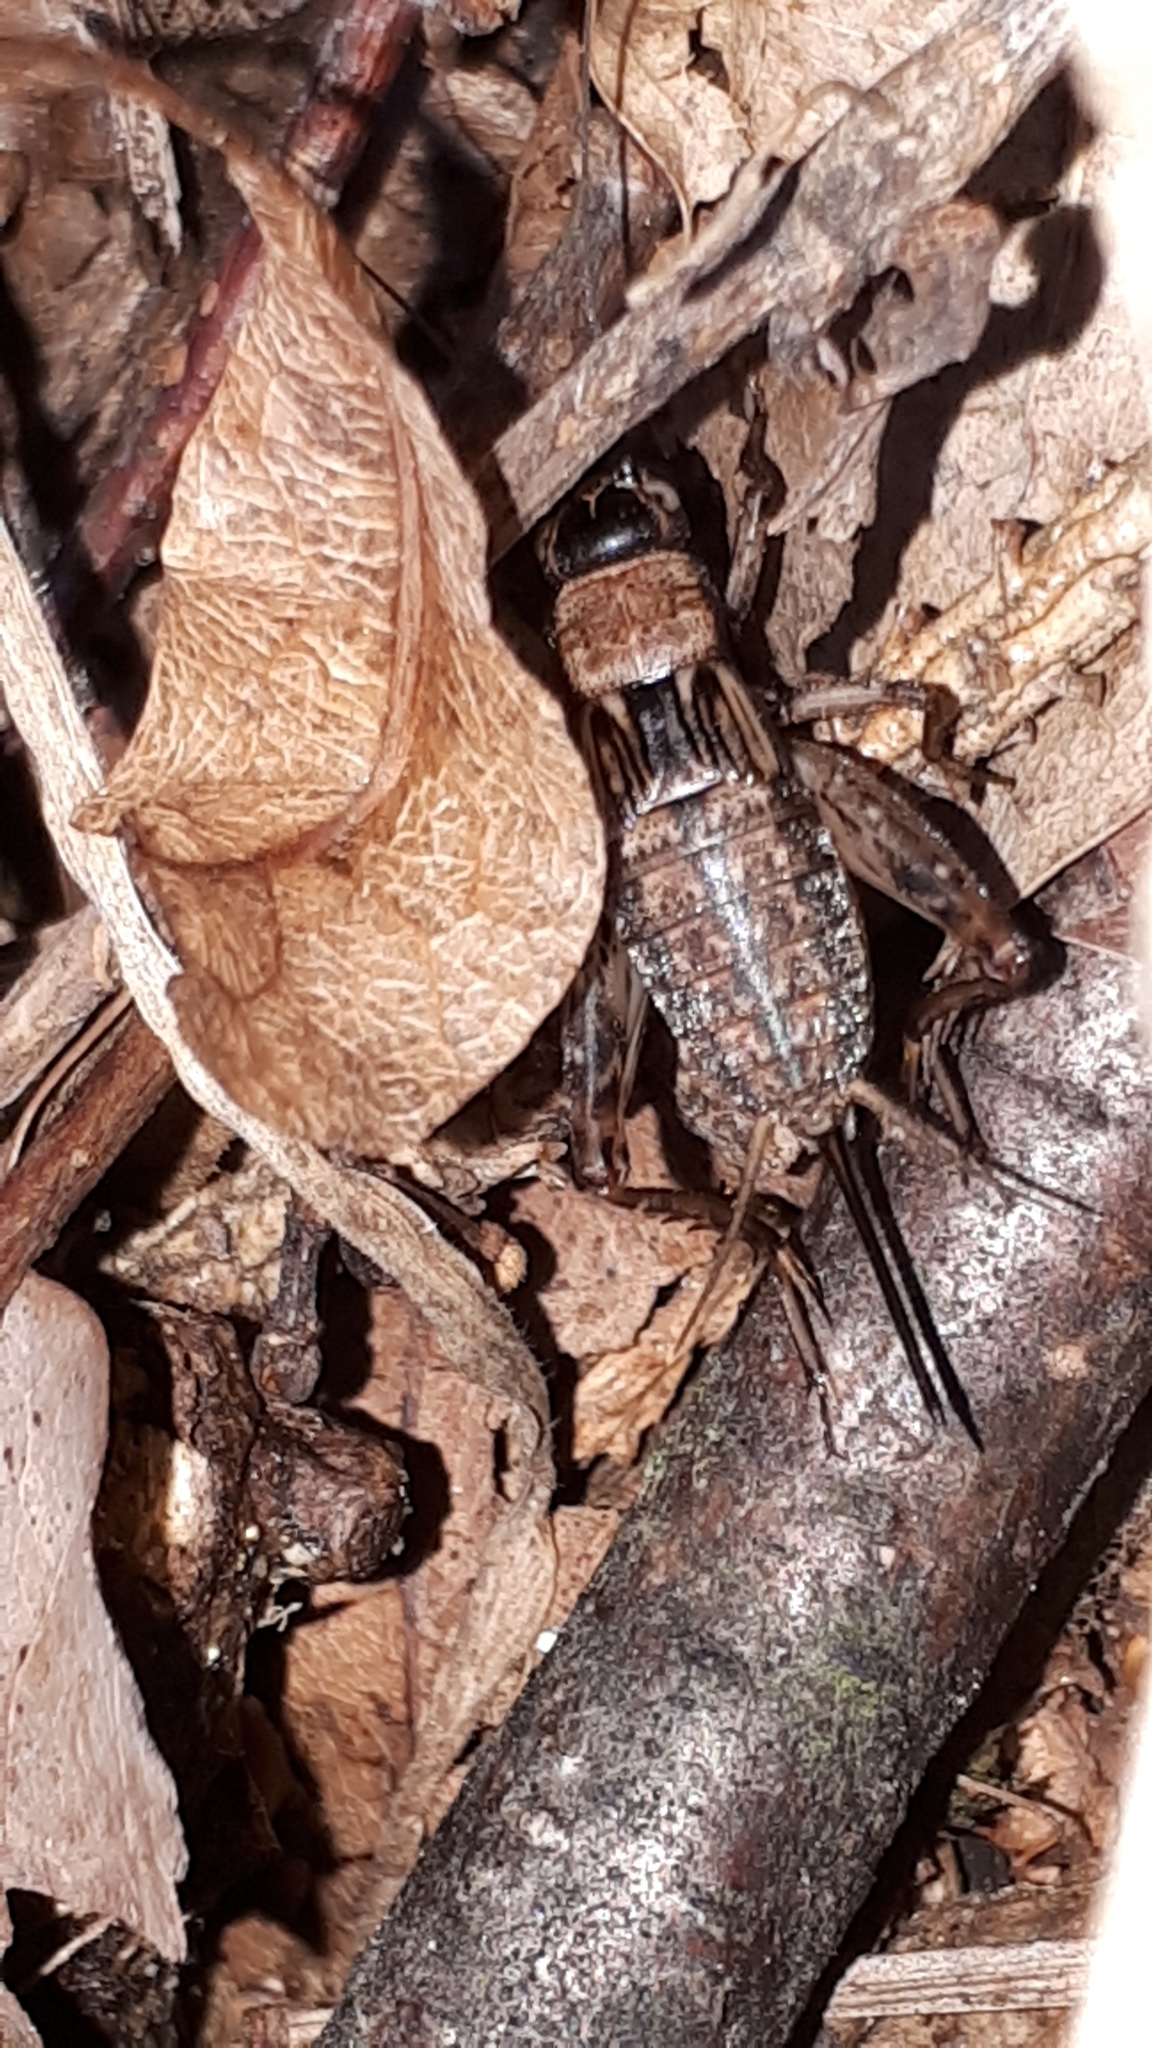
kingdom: Animalia
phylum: Arthropoda
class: Insecta
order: Orthoptera
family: Trigonidiidae
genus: Nemobius
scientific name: Nemobius sylvestris
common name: Wood-cricket
